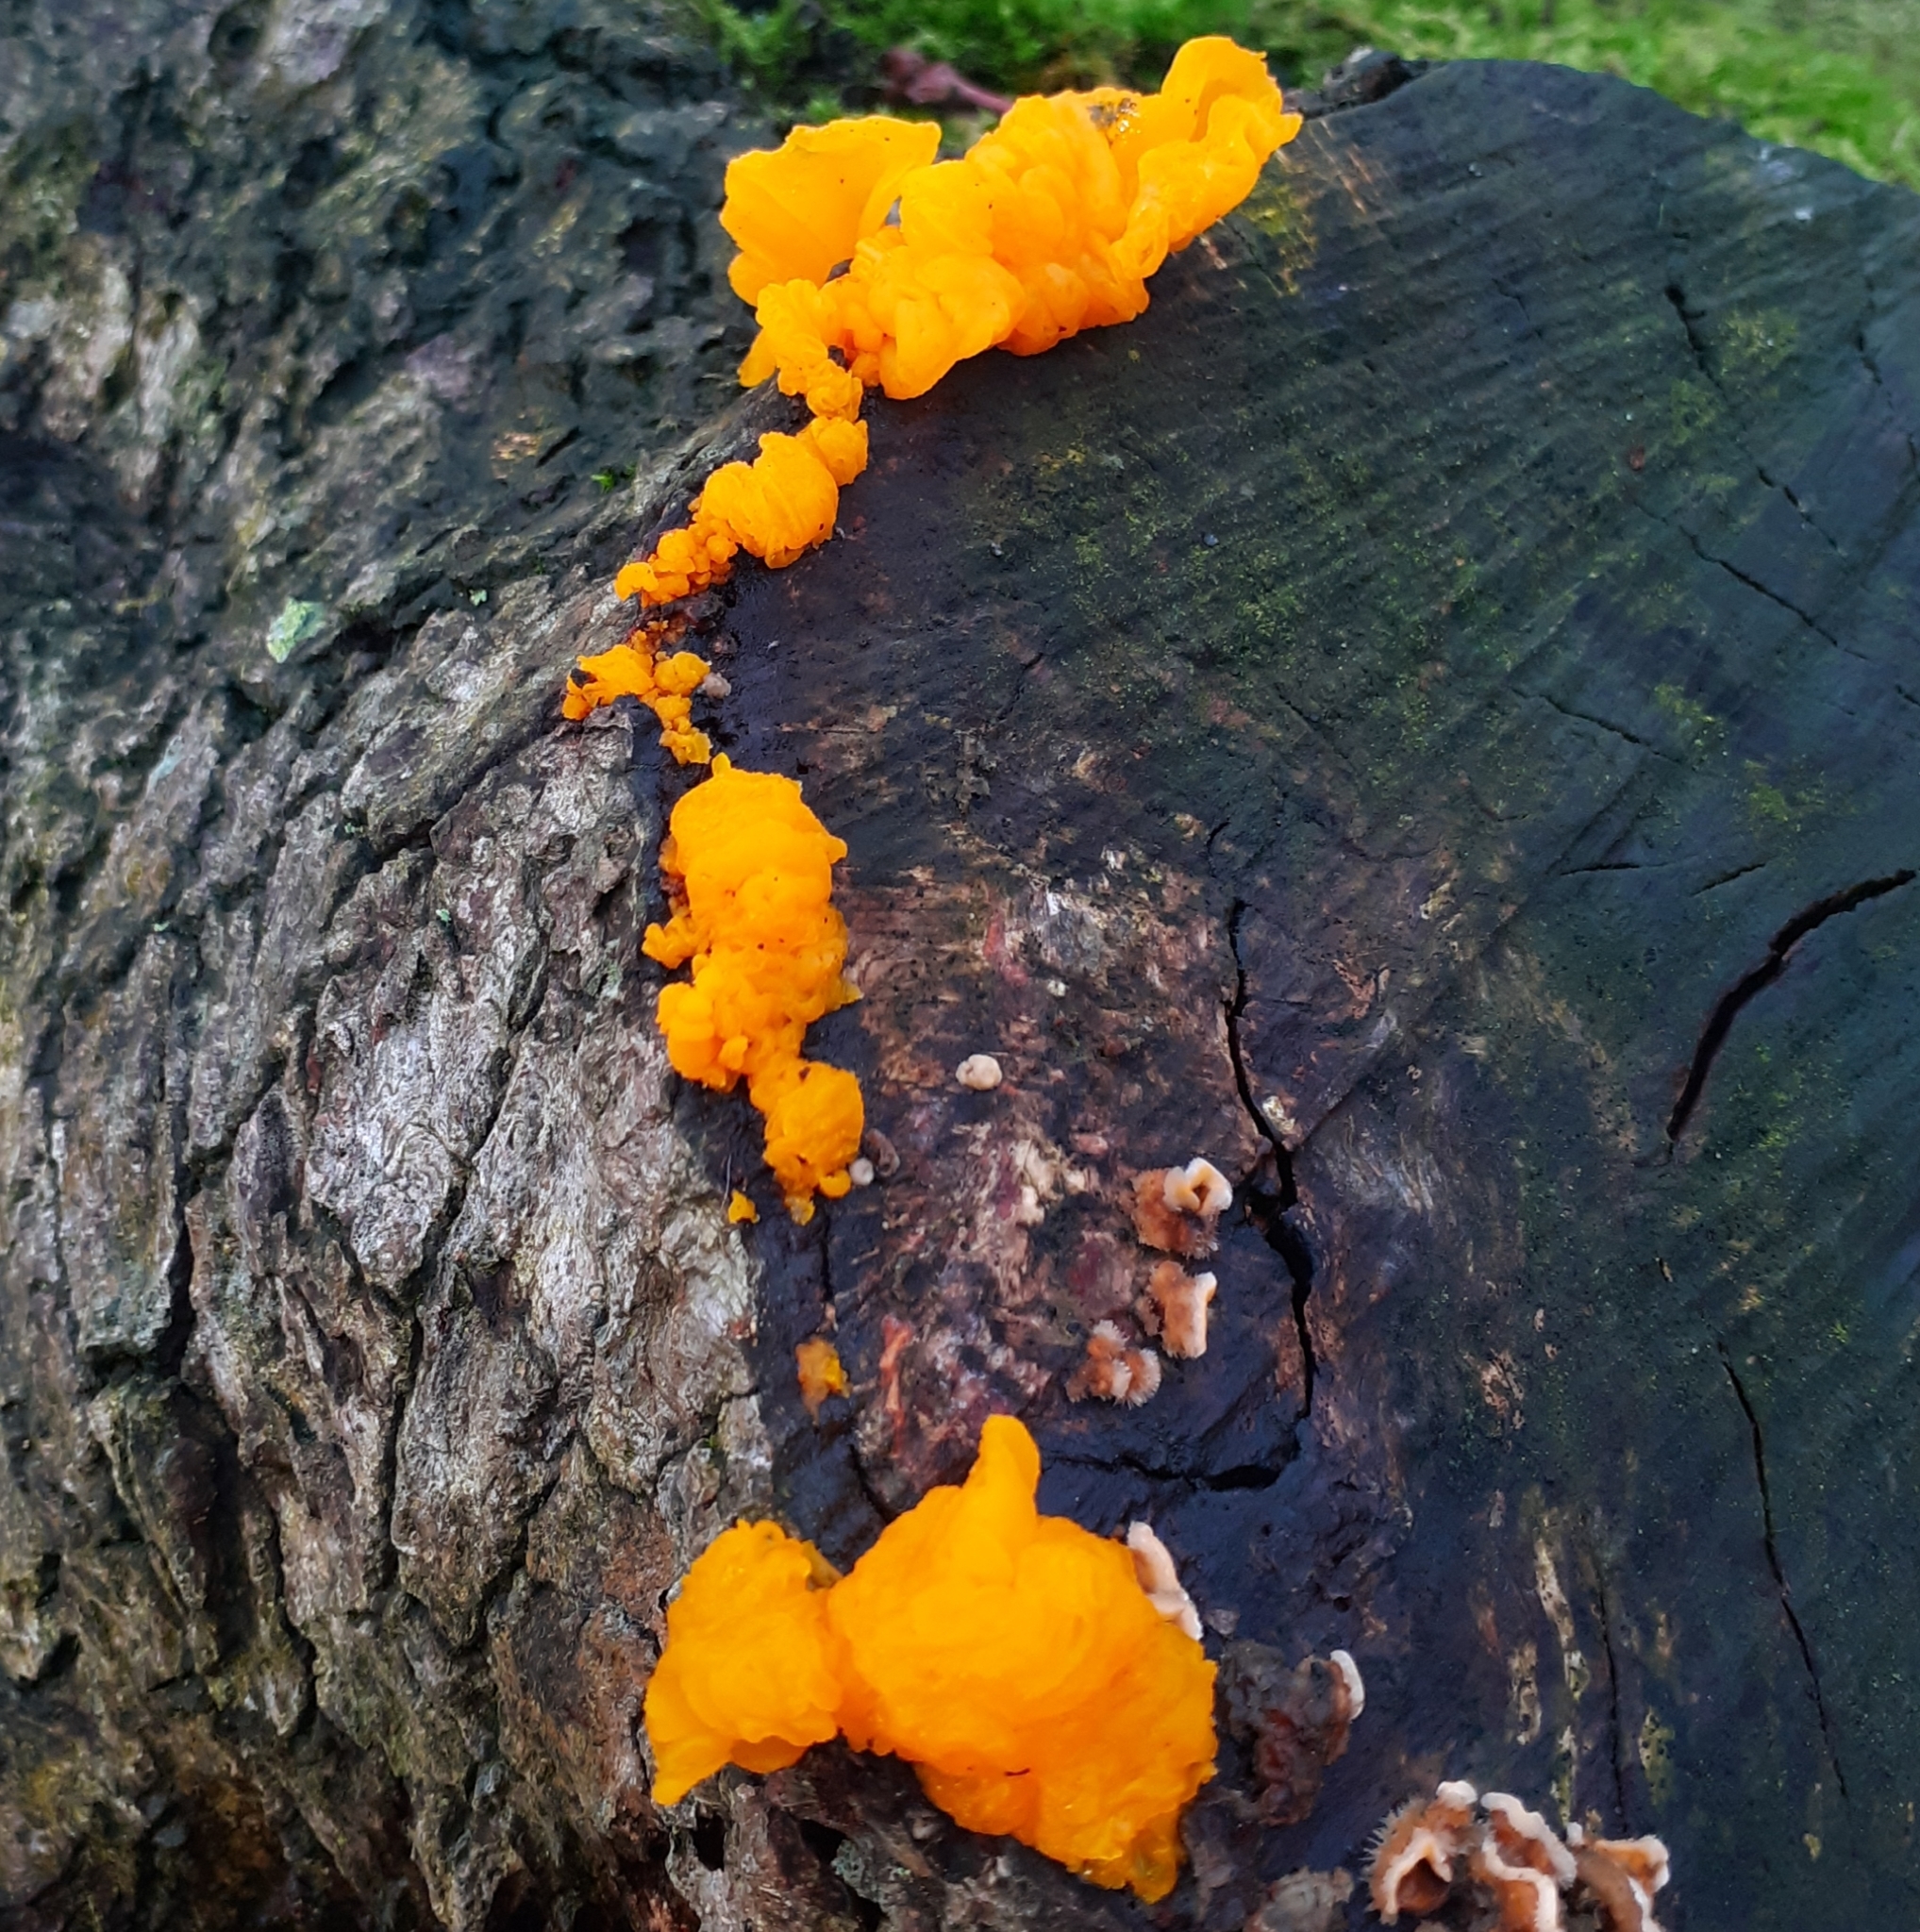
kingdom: Fungi
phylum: Basidiomycota
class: Tremellomycetes
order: Tremellales
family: Naemateliaceae
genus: Naematelia
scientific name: Naematelia aurantia
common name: Golden ear
